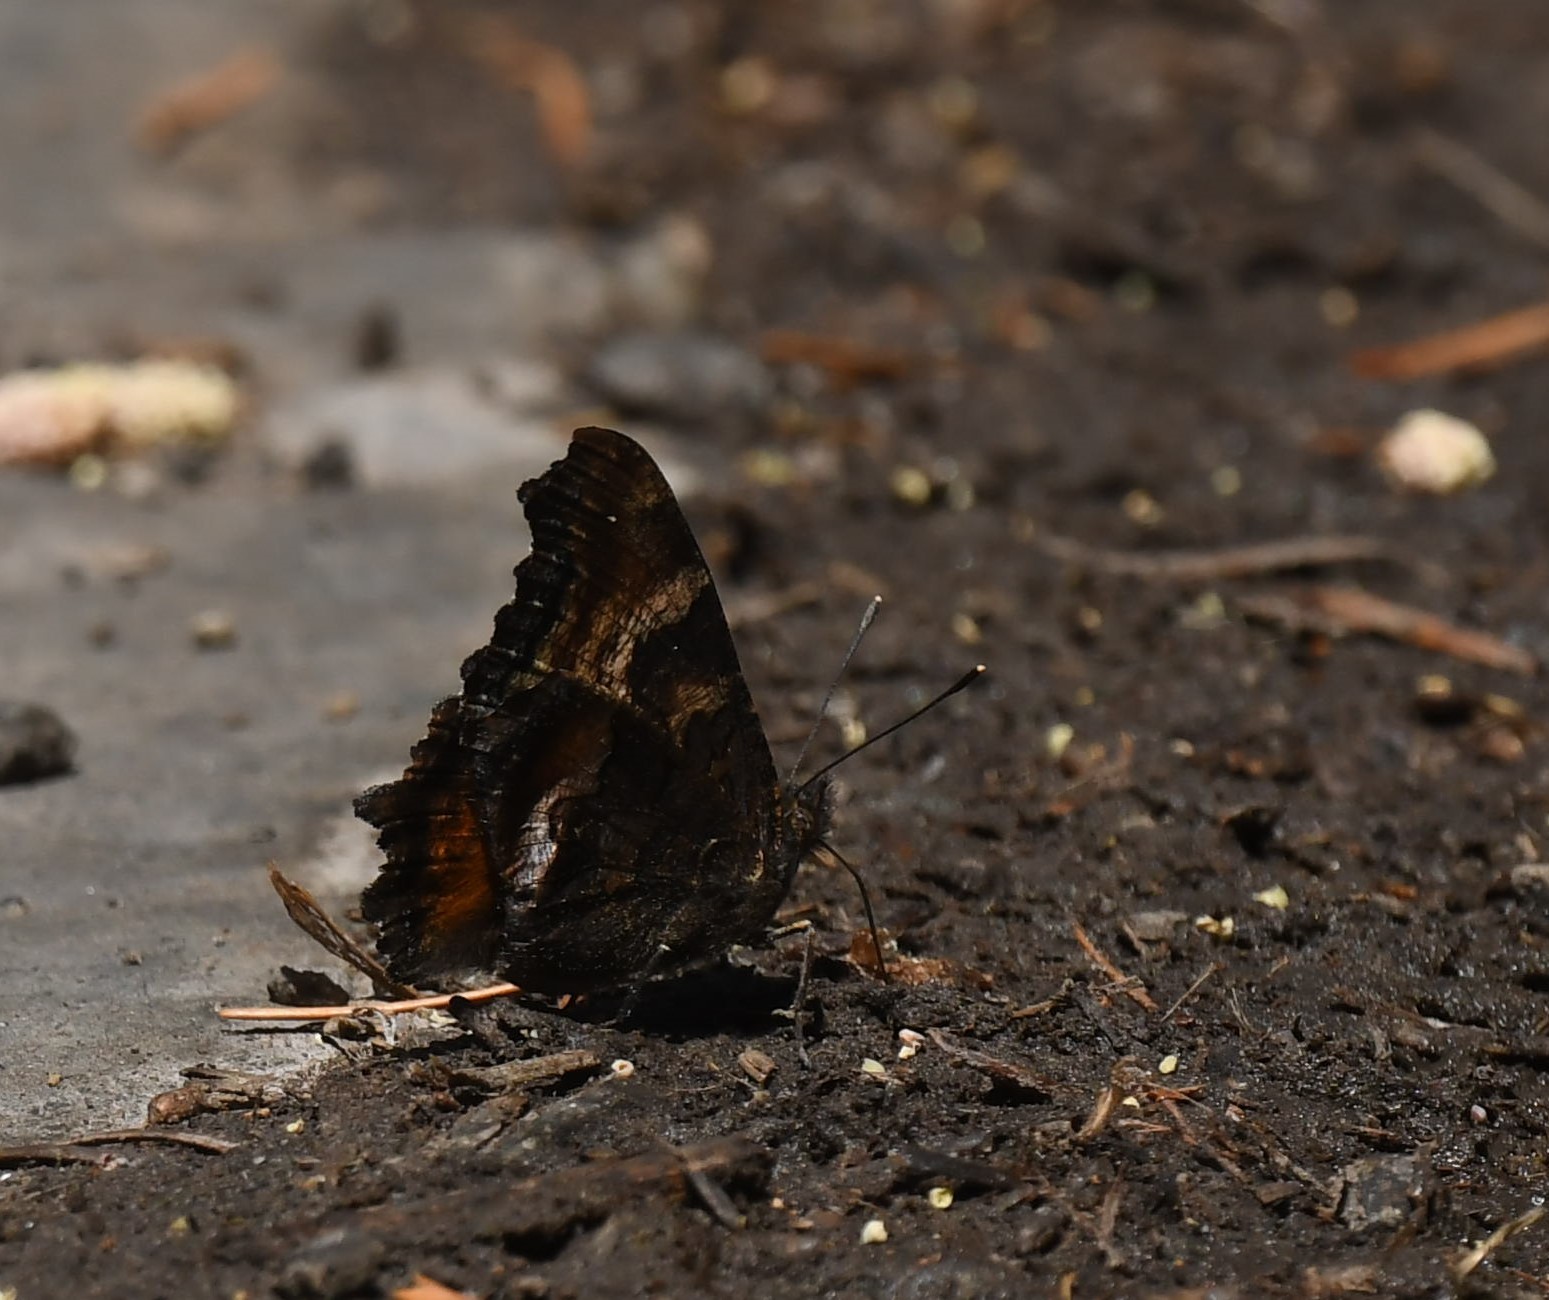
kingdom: Animalia
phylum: Arthropoda
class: Insecta
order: Lepidoptera
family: Nymphalidae
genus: Nymphalis
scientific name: Nymphalis californica
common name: California tortoiseshell
